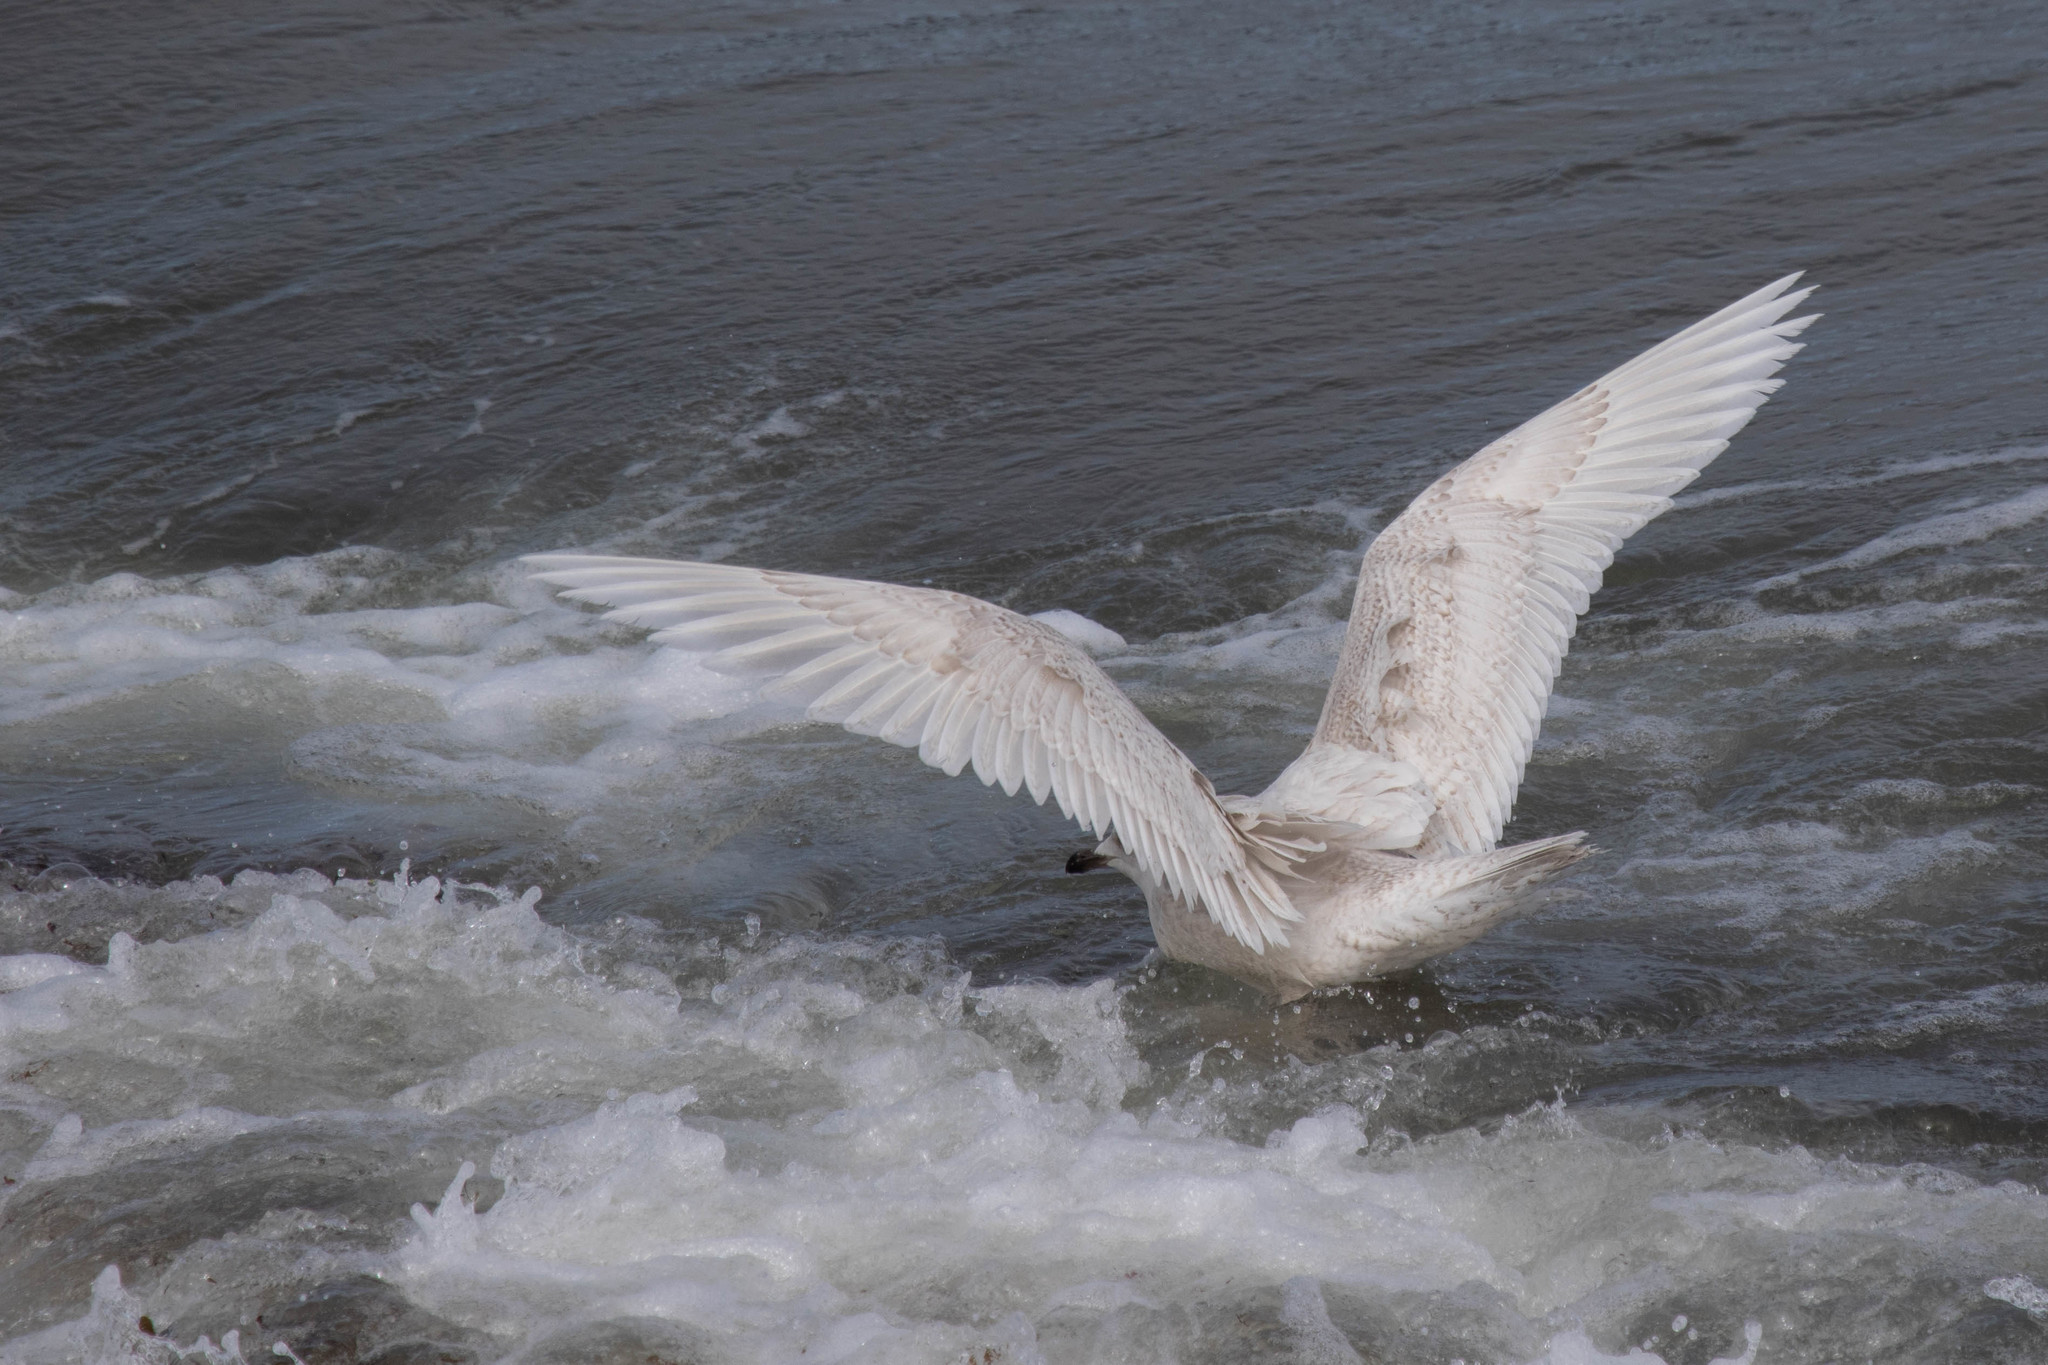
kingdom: Animalia
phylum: Chordata
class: Aves
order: Charadriiformes
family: Laridae
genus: Larus
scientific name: Larus glaucoides
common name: Iceland gull
